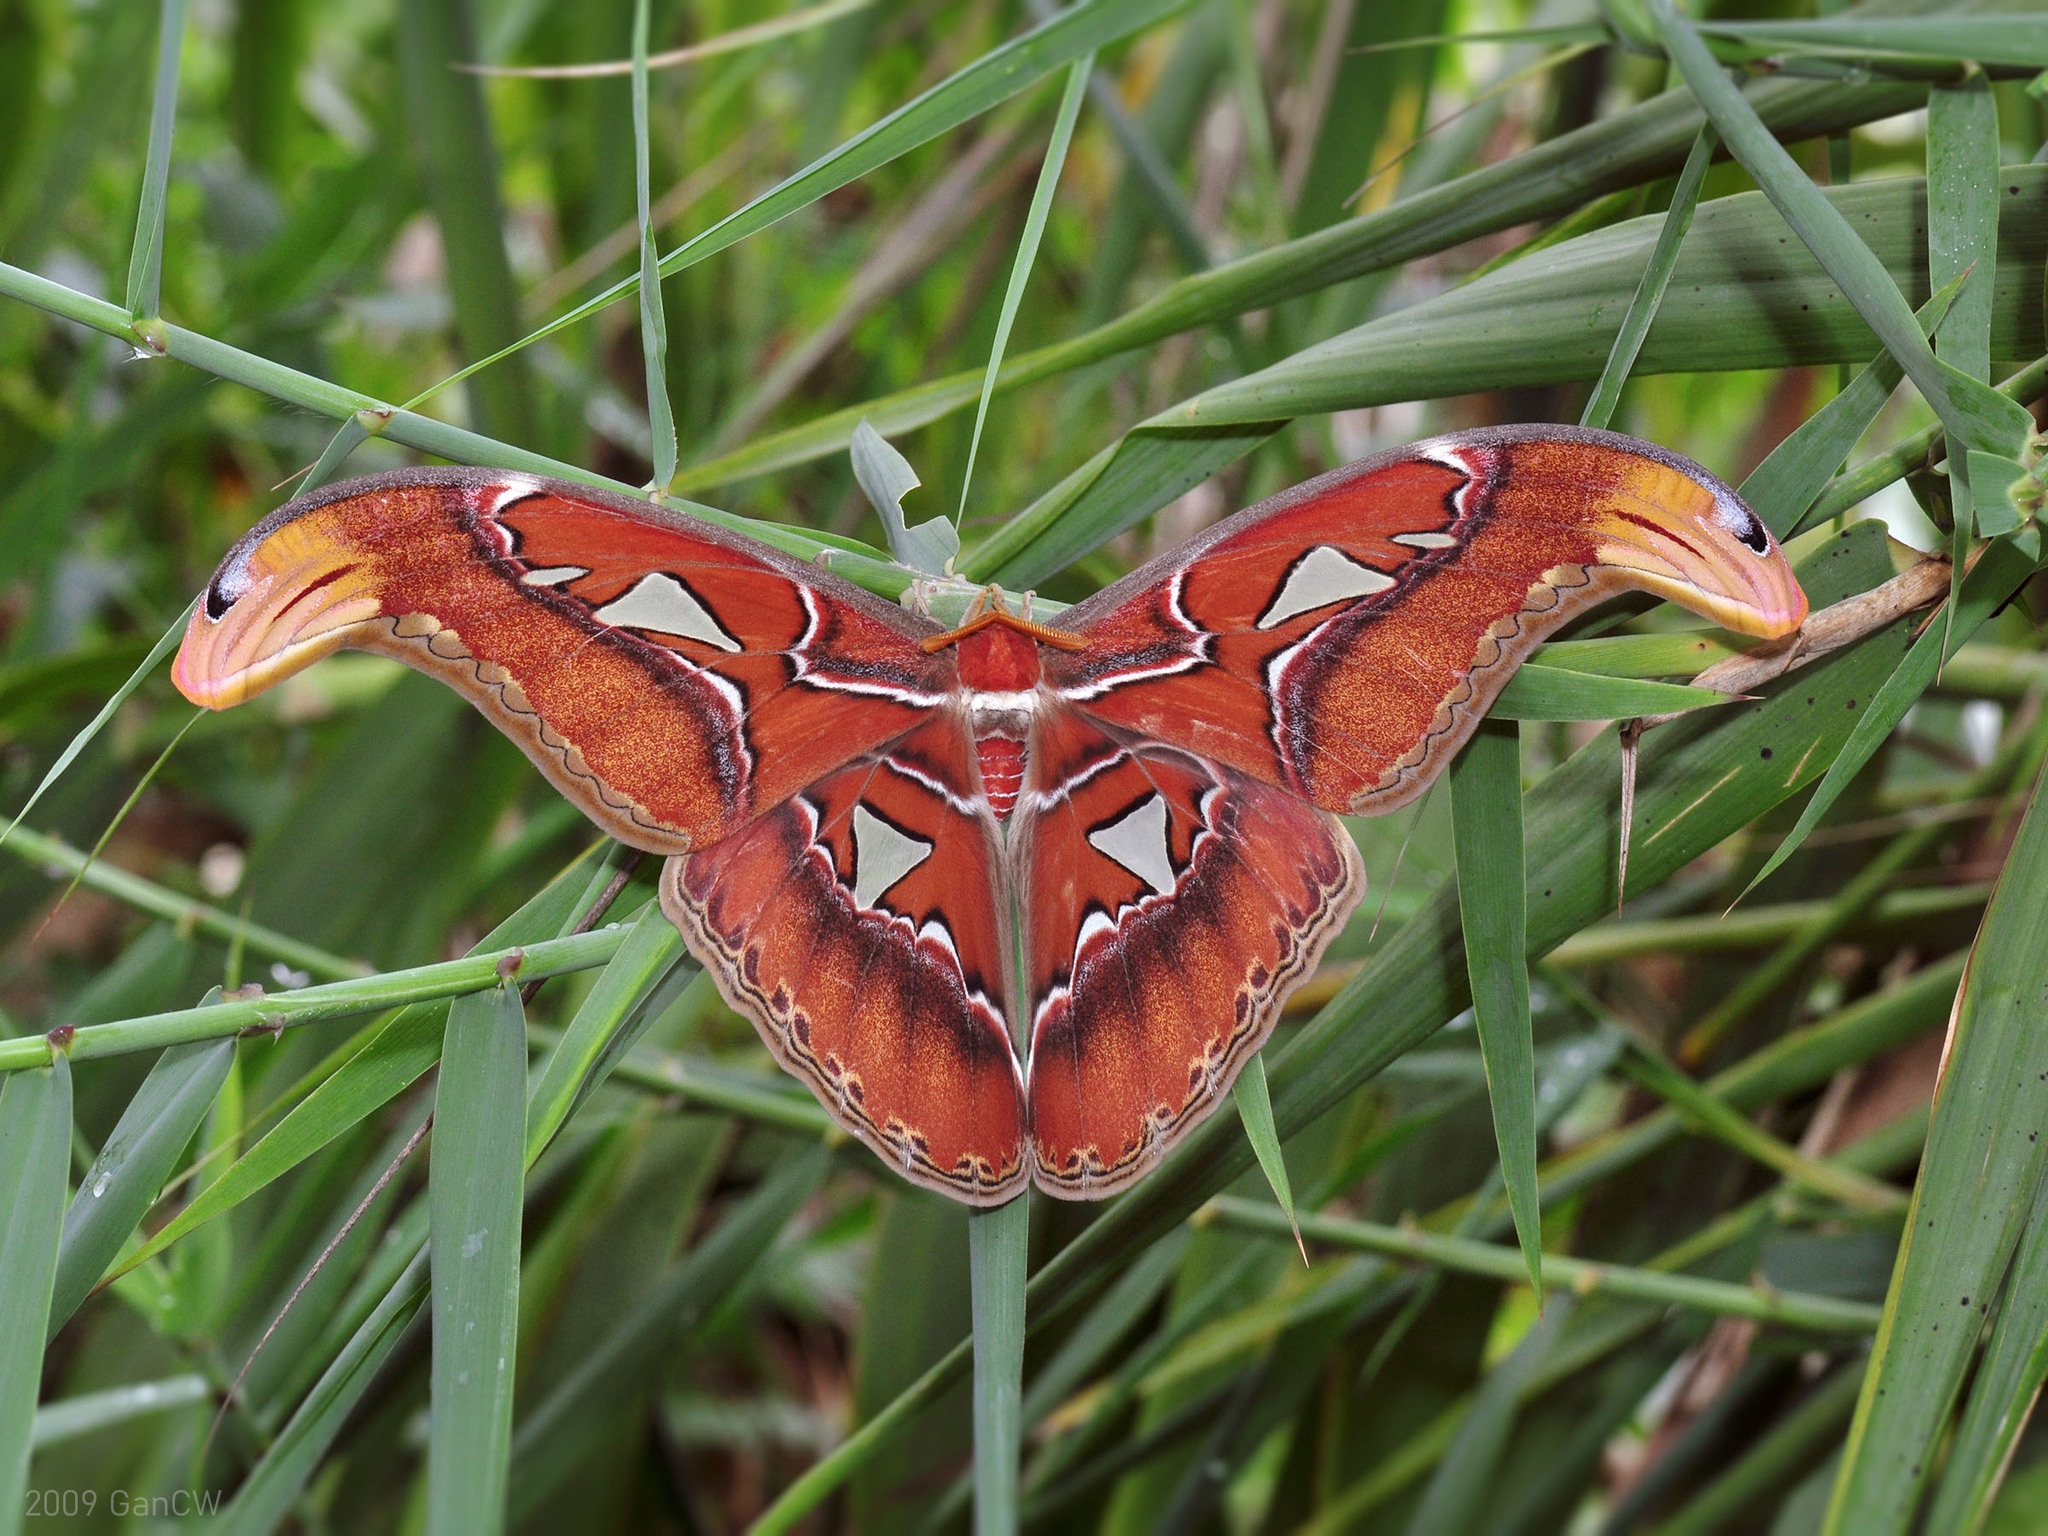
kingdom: Animalia
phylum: Arthropoda
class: Insecta
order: Lepidoptera
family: Saturniidae
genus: Attacus
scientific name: Attacus atlas
